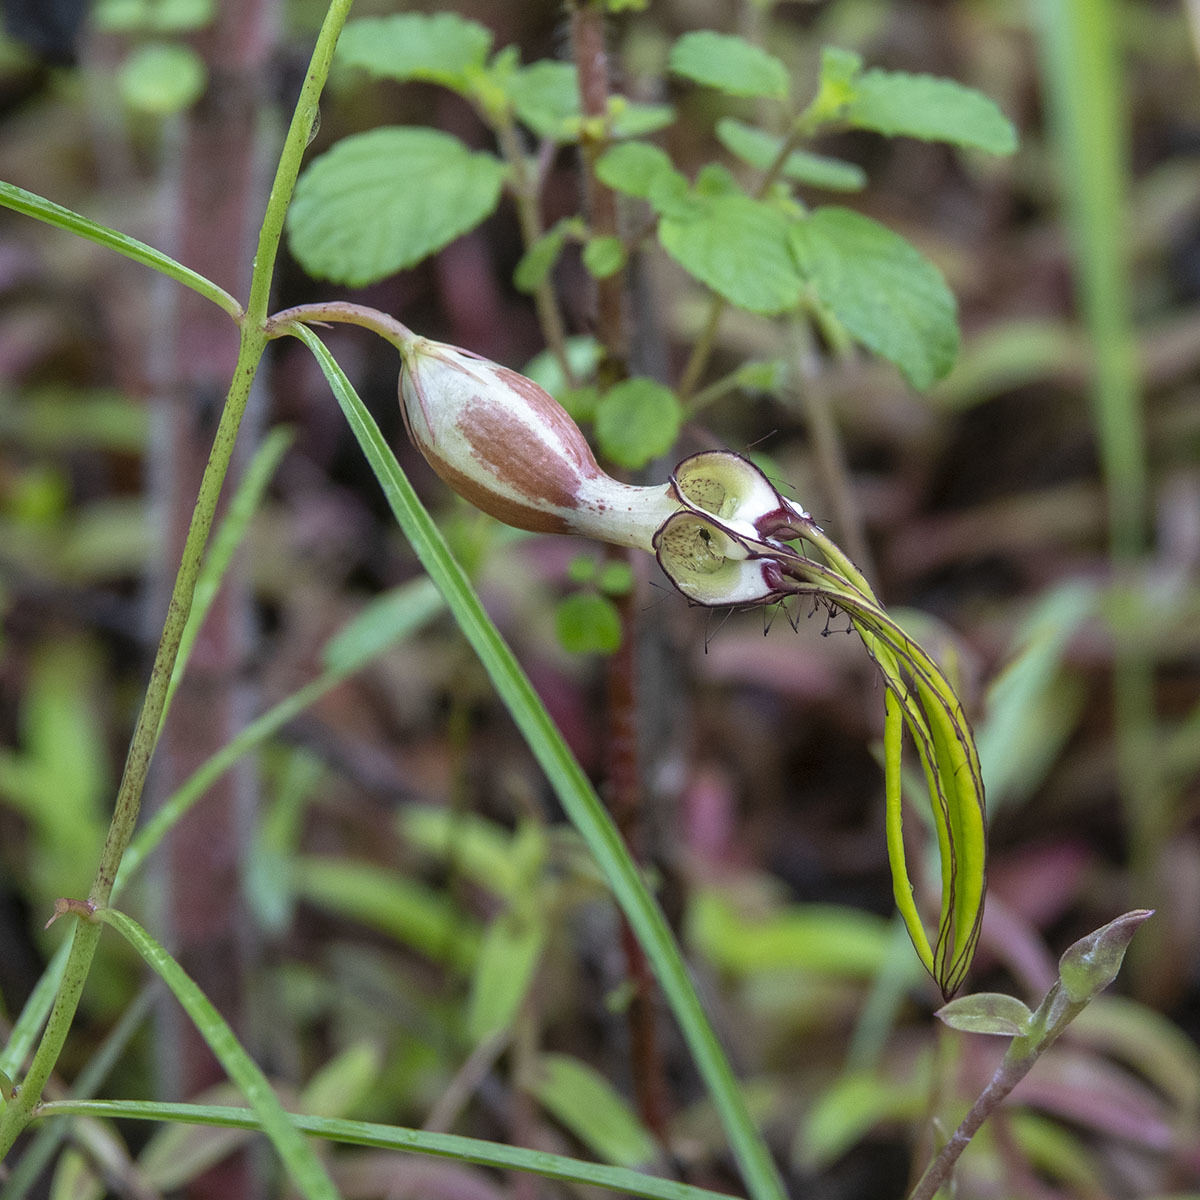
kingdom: Plantae
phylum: Tracheophyta
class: Magnoliopsida
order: Gentianales
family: Apocynaceae
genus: Ceropegia
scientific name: Ceropegia spiralis
